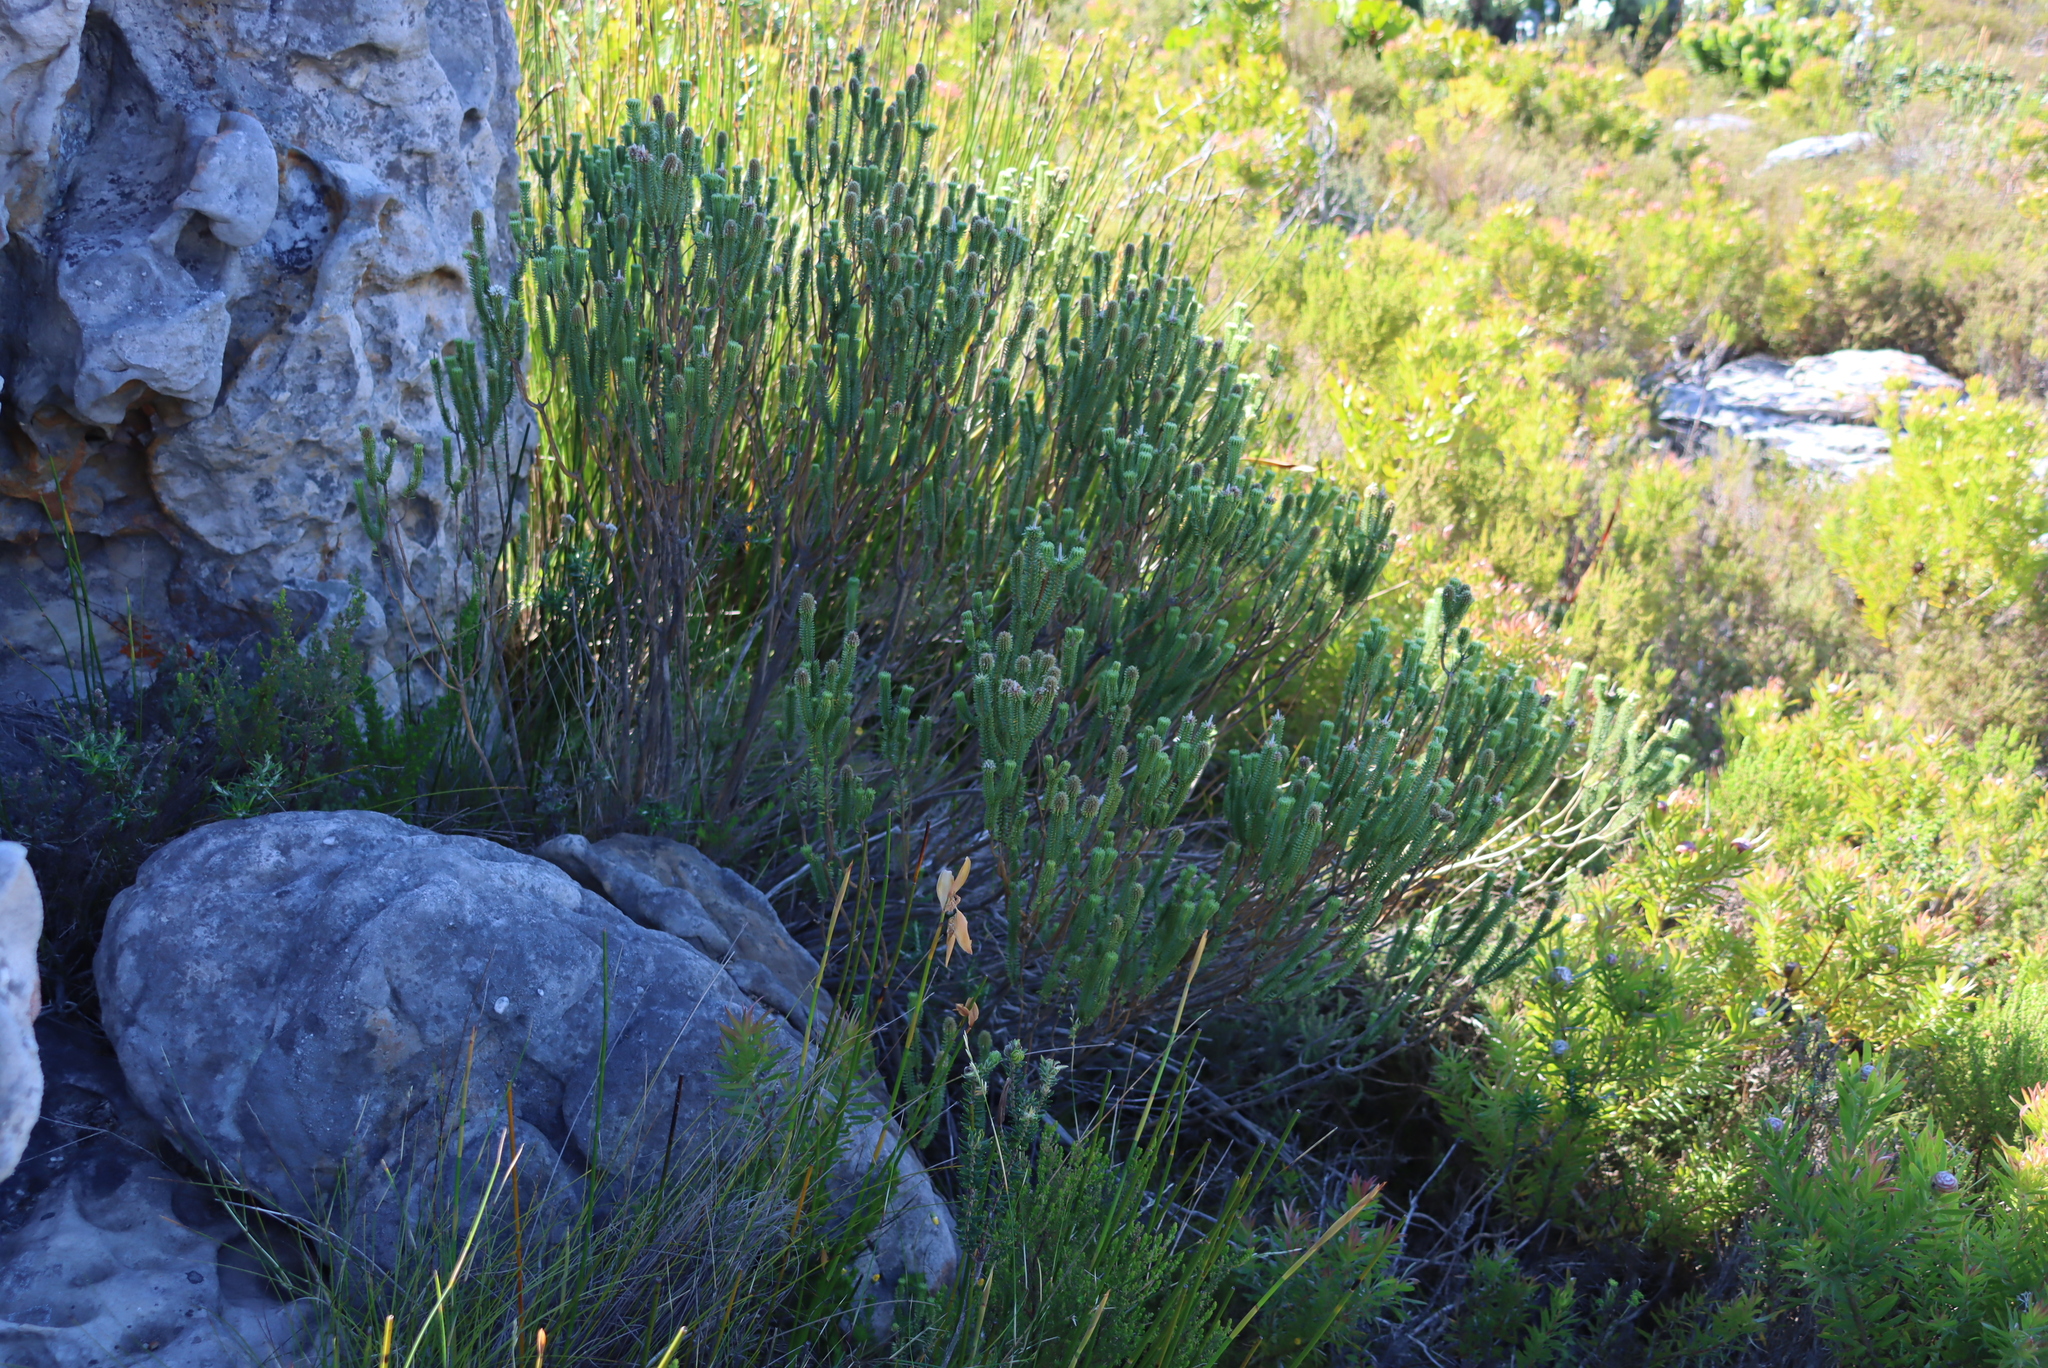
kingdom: Plantae
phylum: Tracheophyta
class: Magnoliopsida
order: Lamiales
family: Stilbaceae
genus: Stilbe
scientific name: Stilbe vestita
